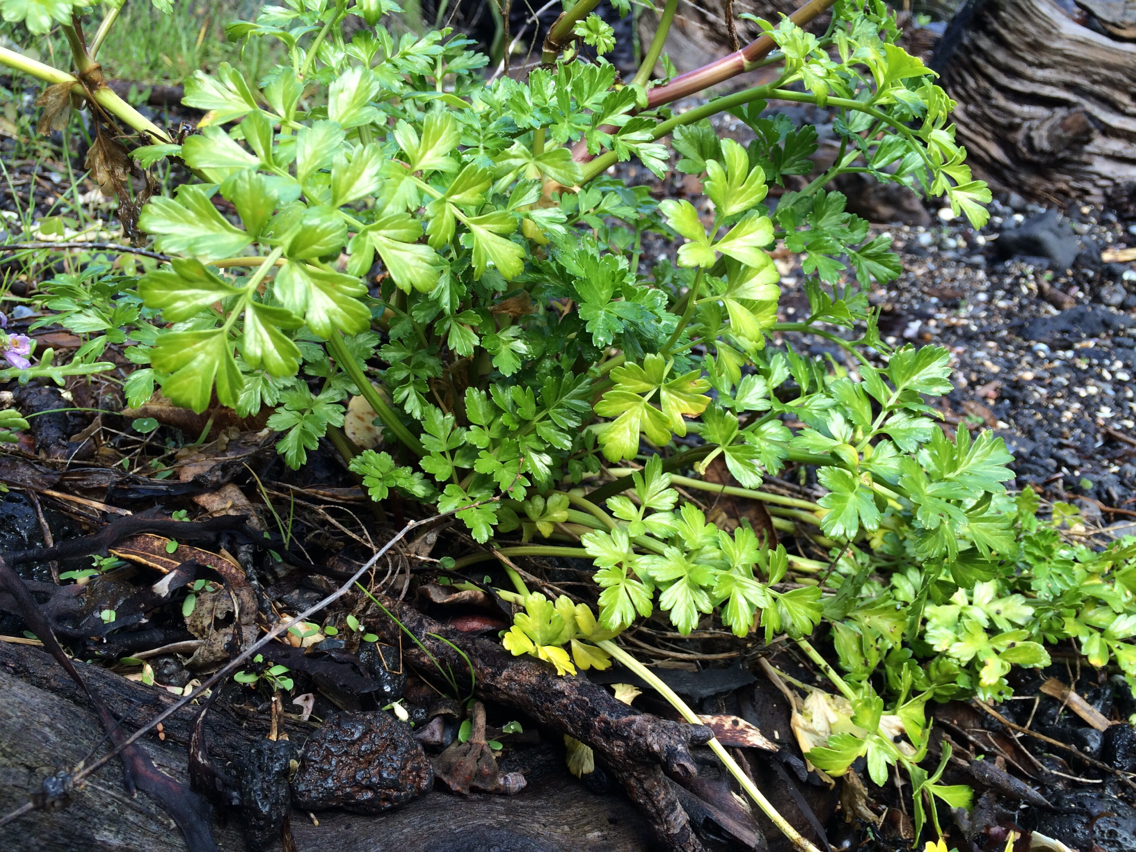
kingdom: Plantae
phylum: Tracheophyta
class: Magnoliopsida
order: Apiales
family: Apiaceae
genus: Apium
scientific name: Apium prostratum
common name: Prostrate marshwort
